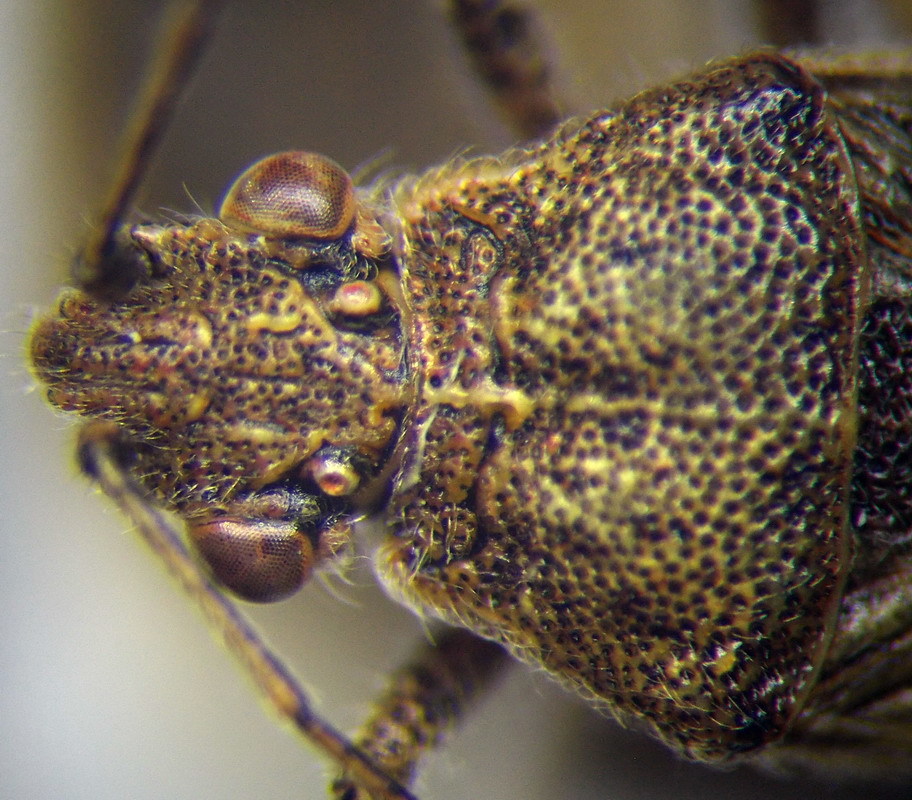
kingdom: Animalia
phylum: Arthropoda
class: Insecta
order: Hemiptera
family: Rhopalidae
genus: Stictopleurus
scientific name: Stictopleurus punctatonervosus
